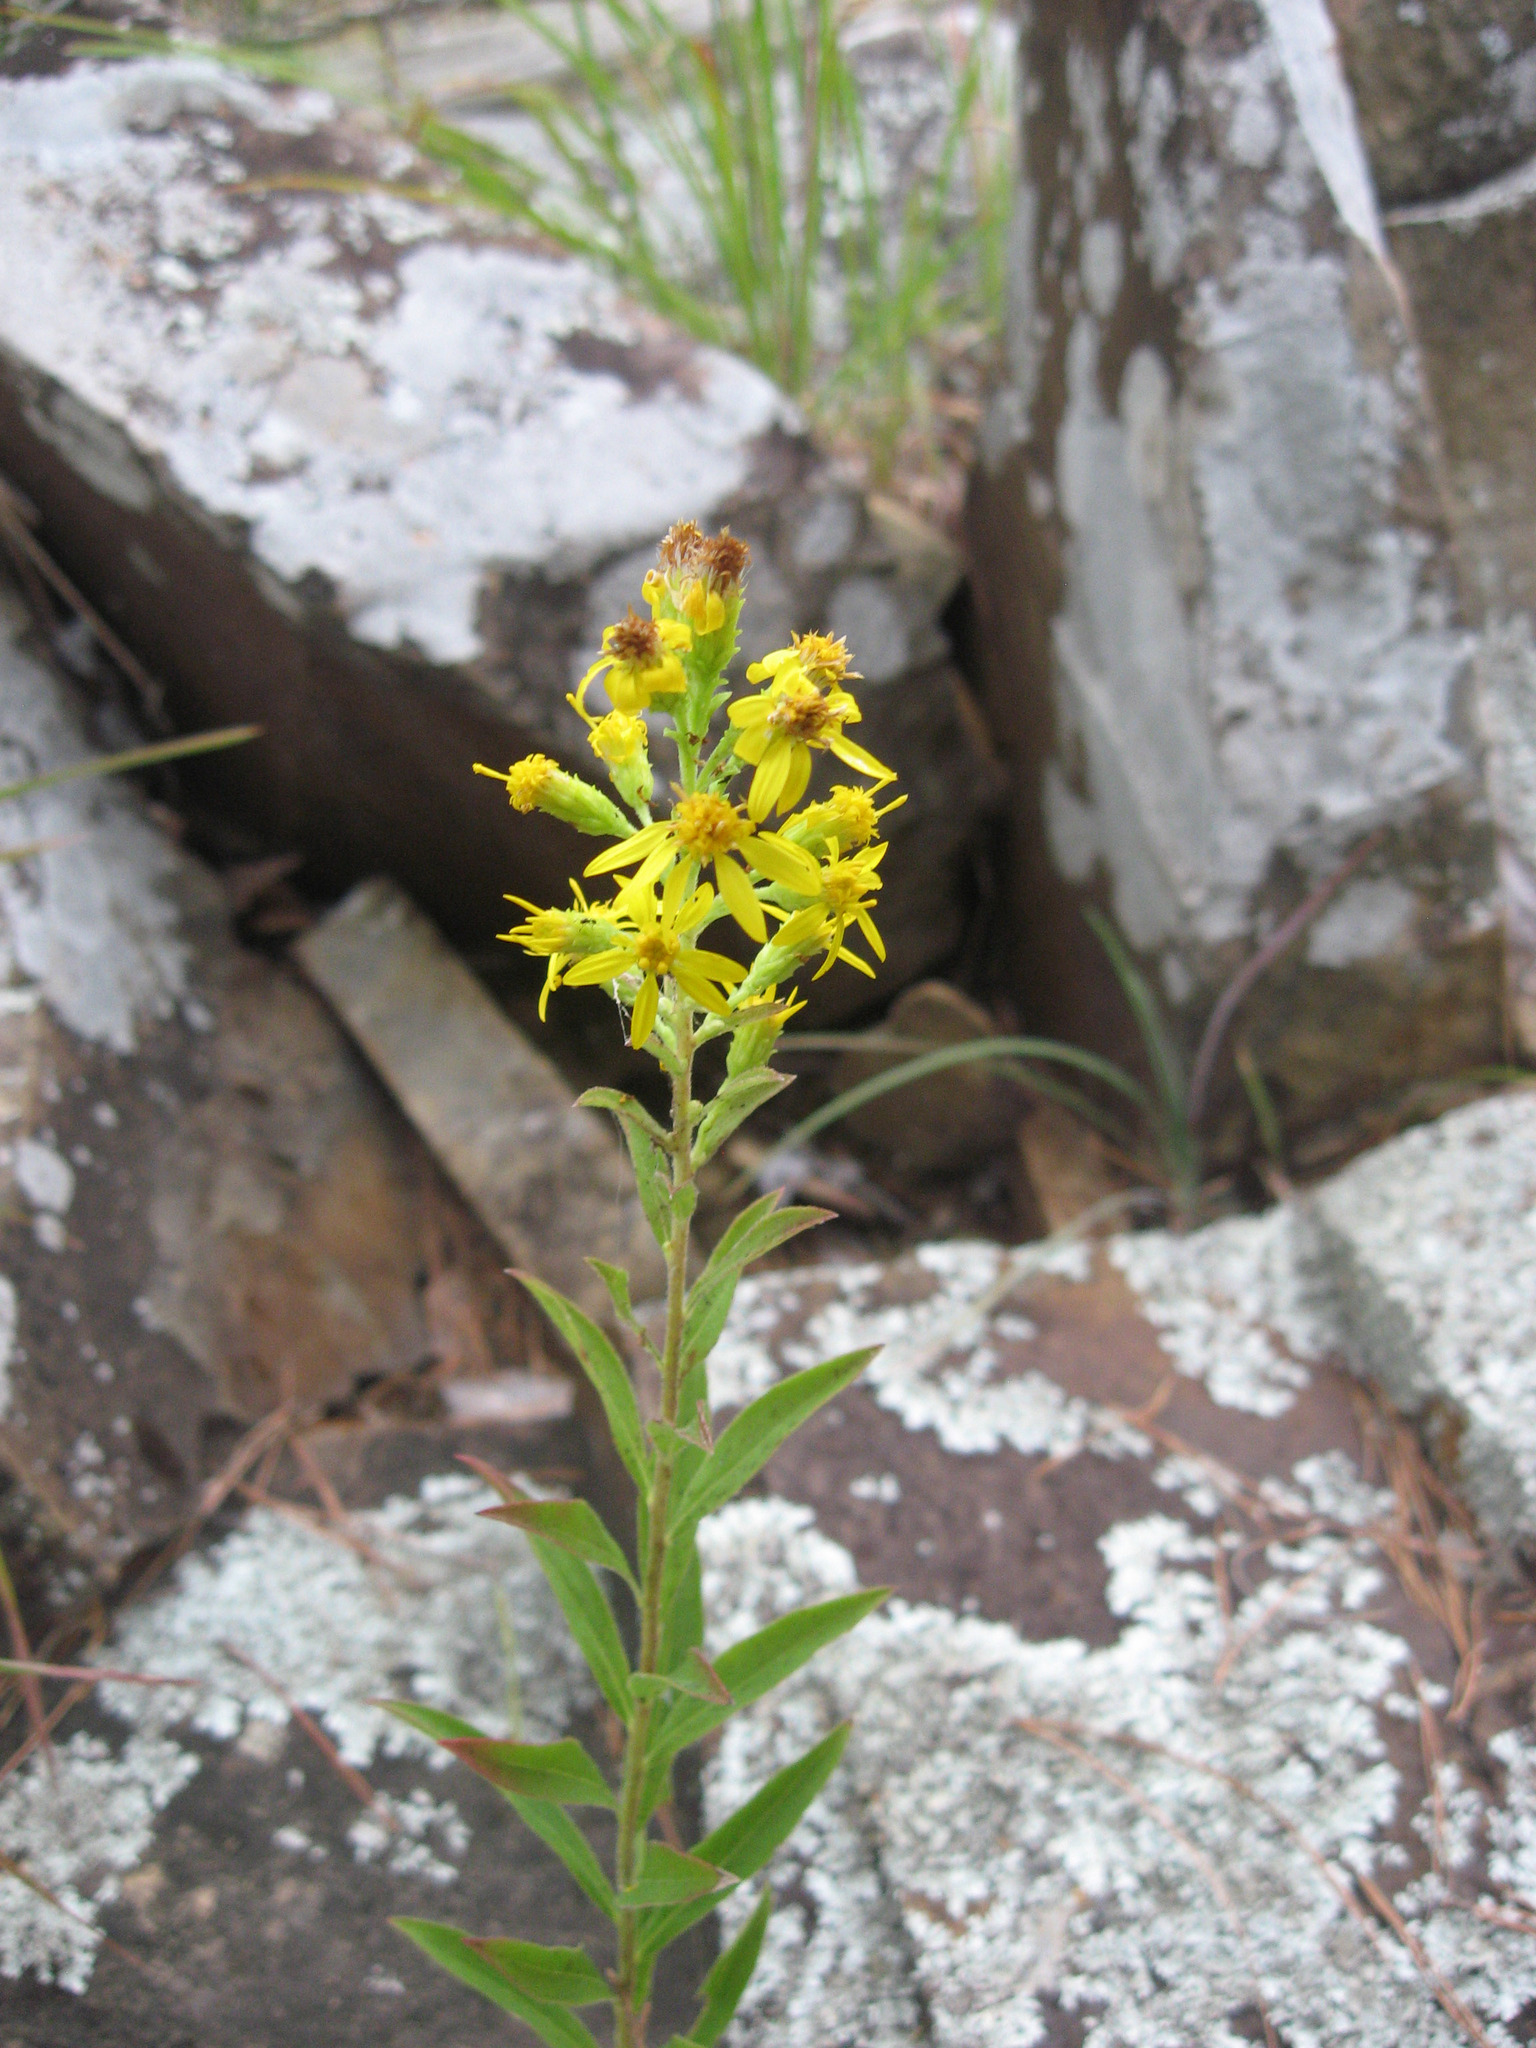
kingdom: Plantae
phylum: Tracheophyta
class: Magnoliopsida
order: Asterales
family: Asteraceae
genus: Solidago
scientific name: Solidago petiolaris
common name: Downy ragged goldenrod
